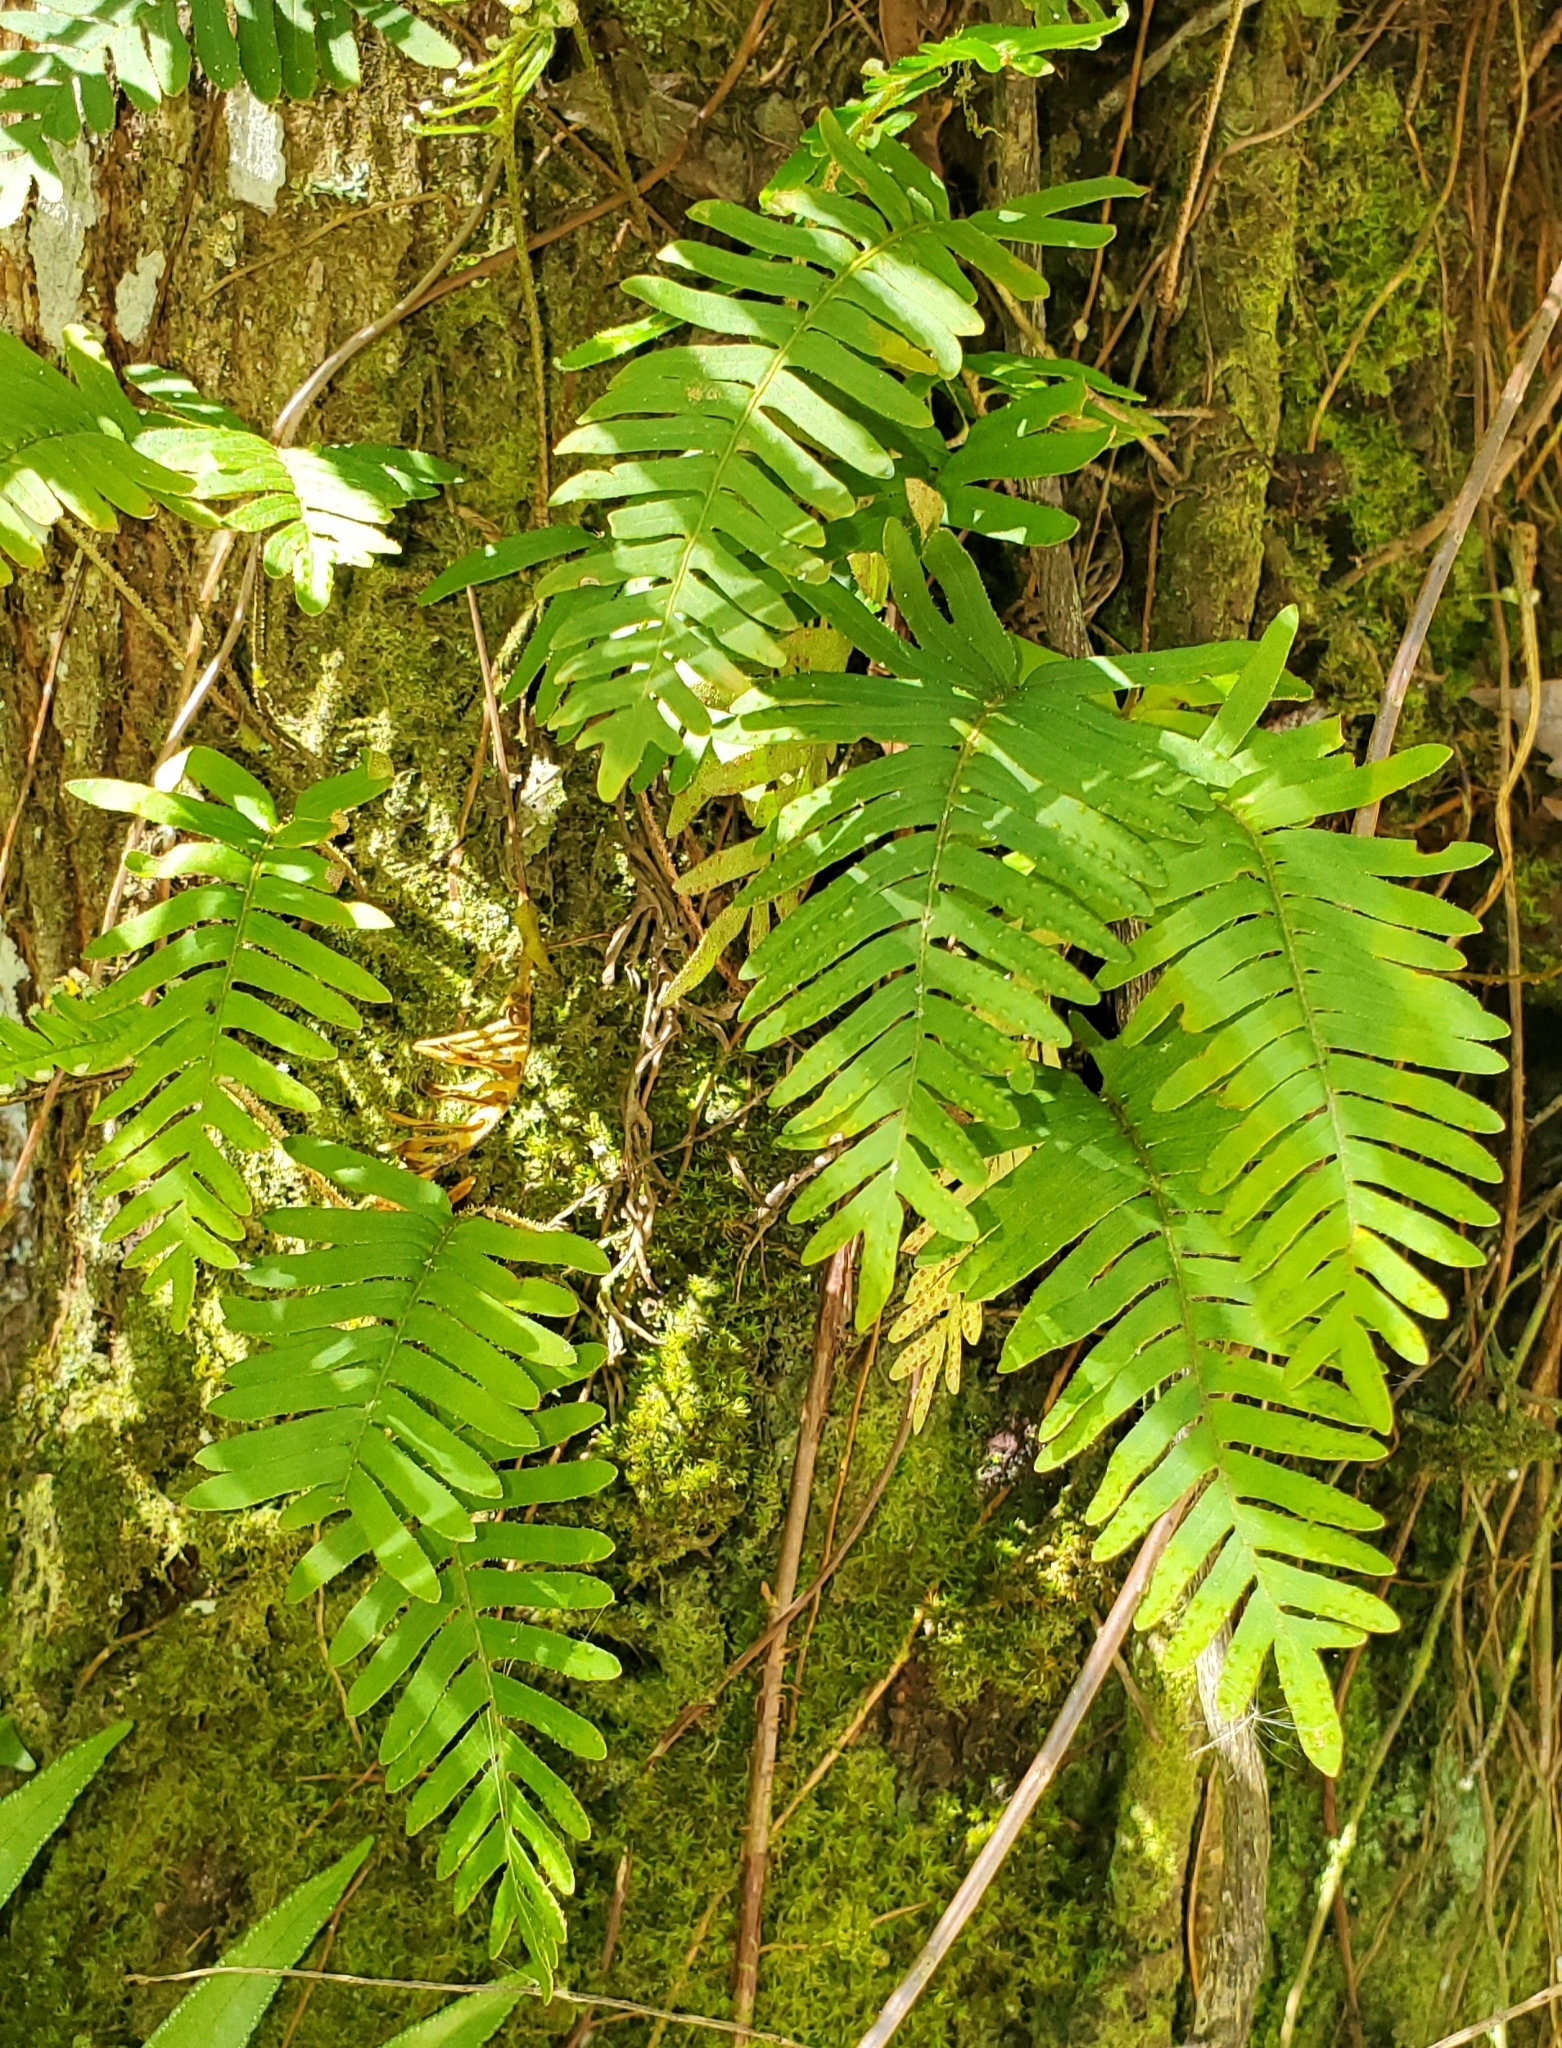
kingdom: Plantae
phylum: Tracheophyta
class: Polypodiopsida
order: Polypodiales
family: Polypodiaceae
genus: Pleopeltis
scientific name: Pleopeltis michauxiana
